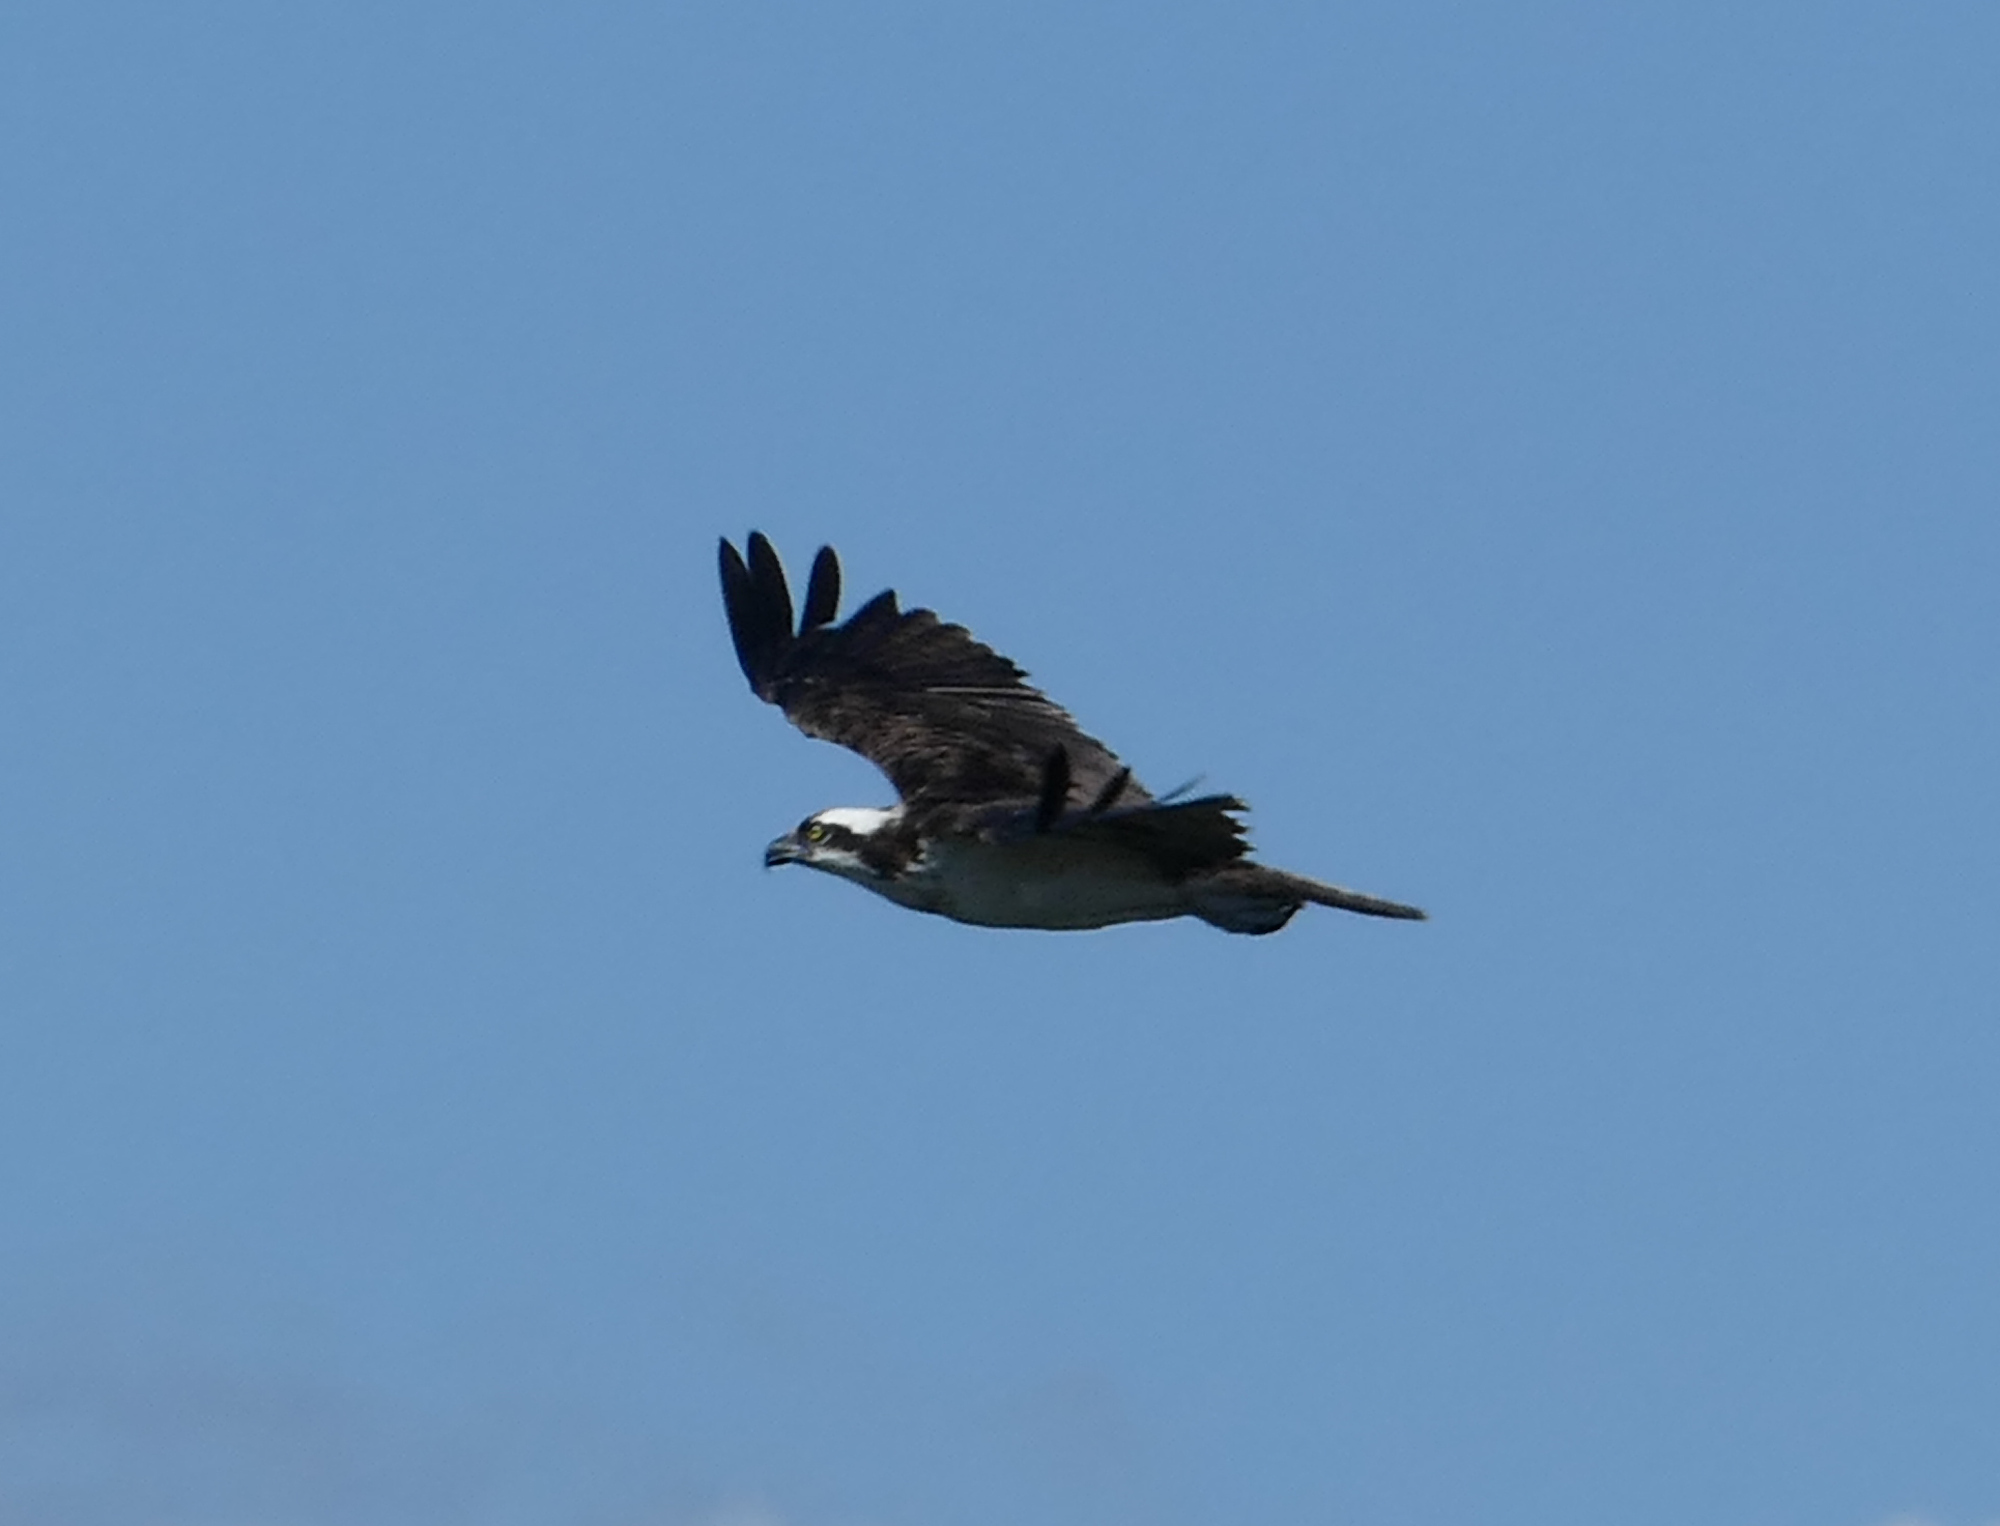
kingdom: Animalia
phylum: Chordata
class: Aves
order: Accipitriformes
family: Pandionidae
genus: Pandion
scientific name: Pandion haliaetus
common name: Osprey
